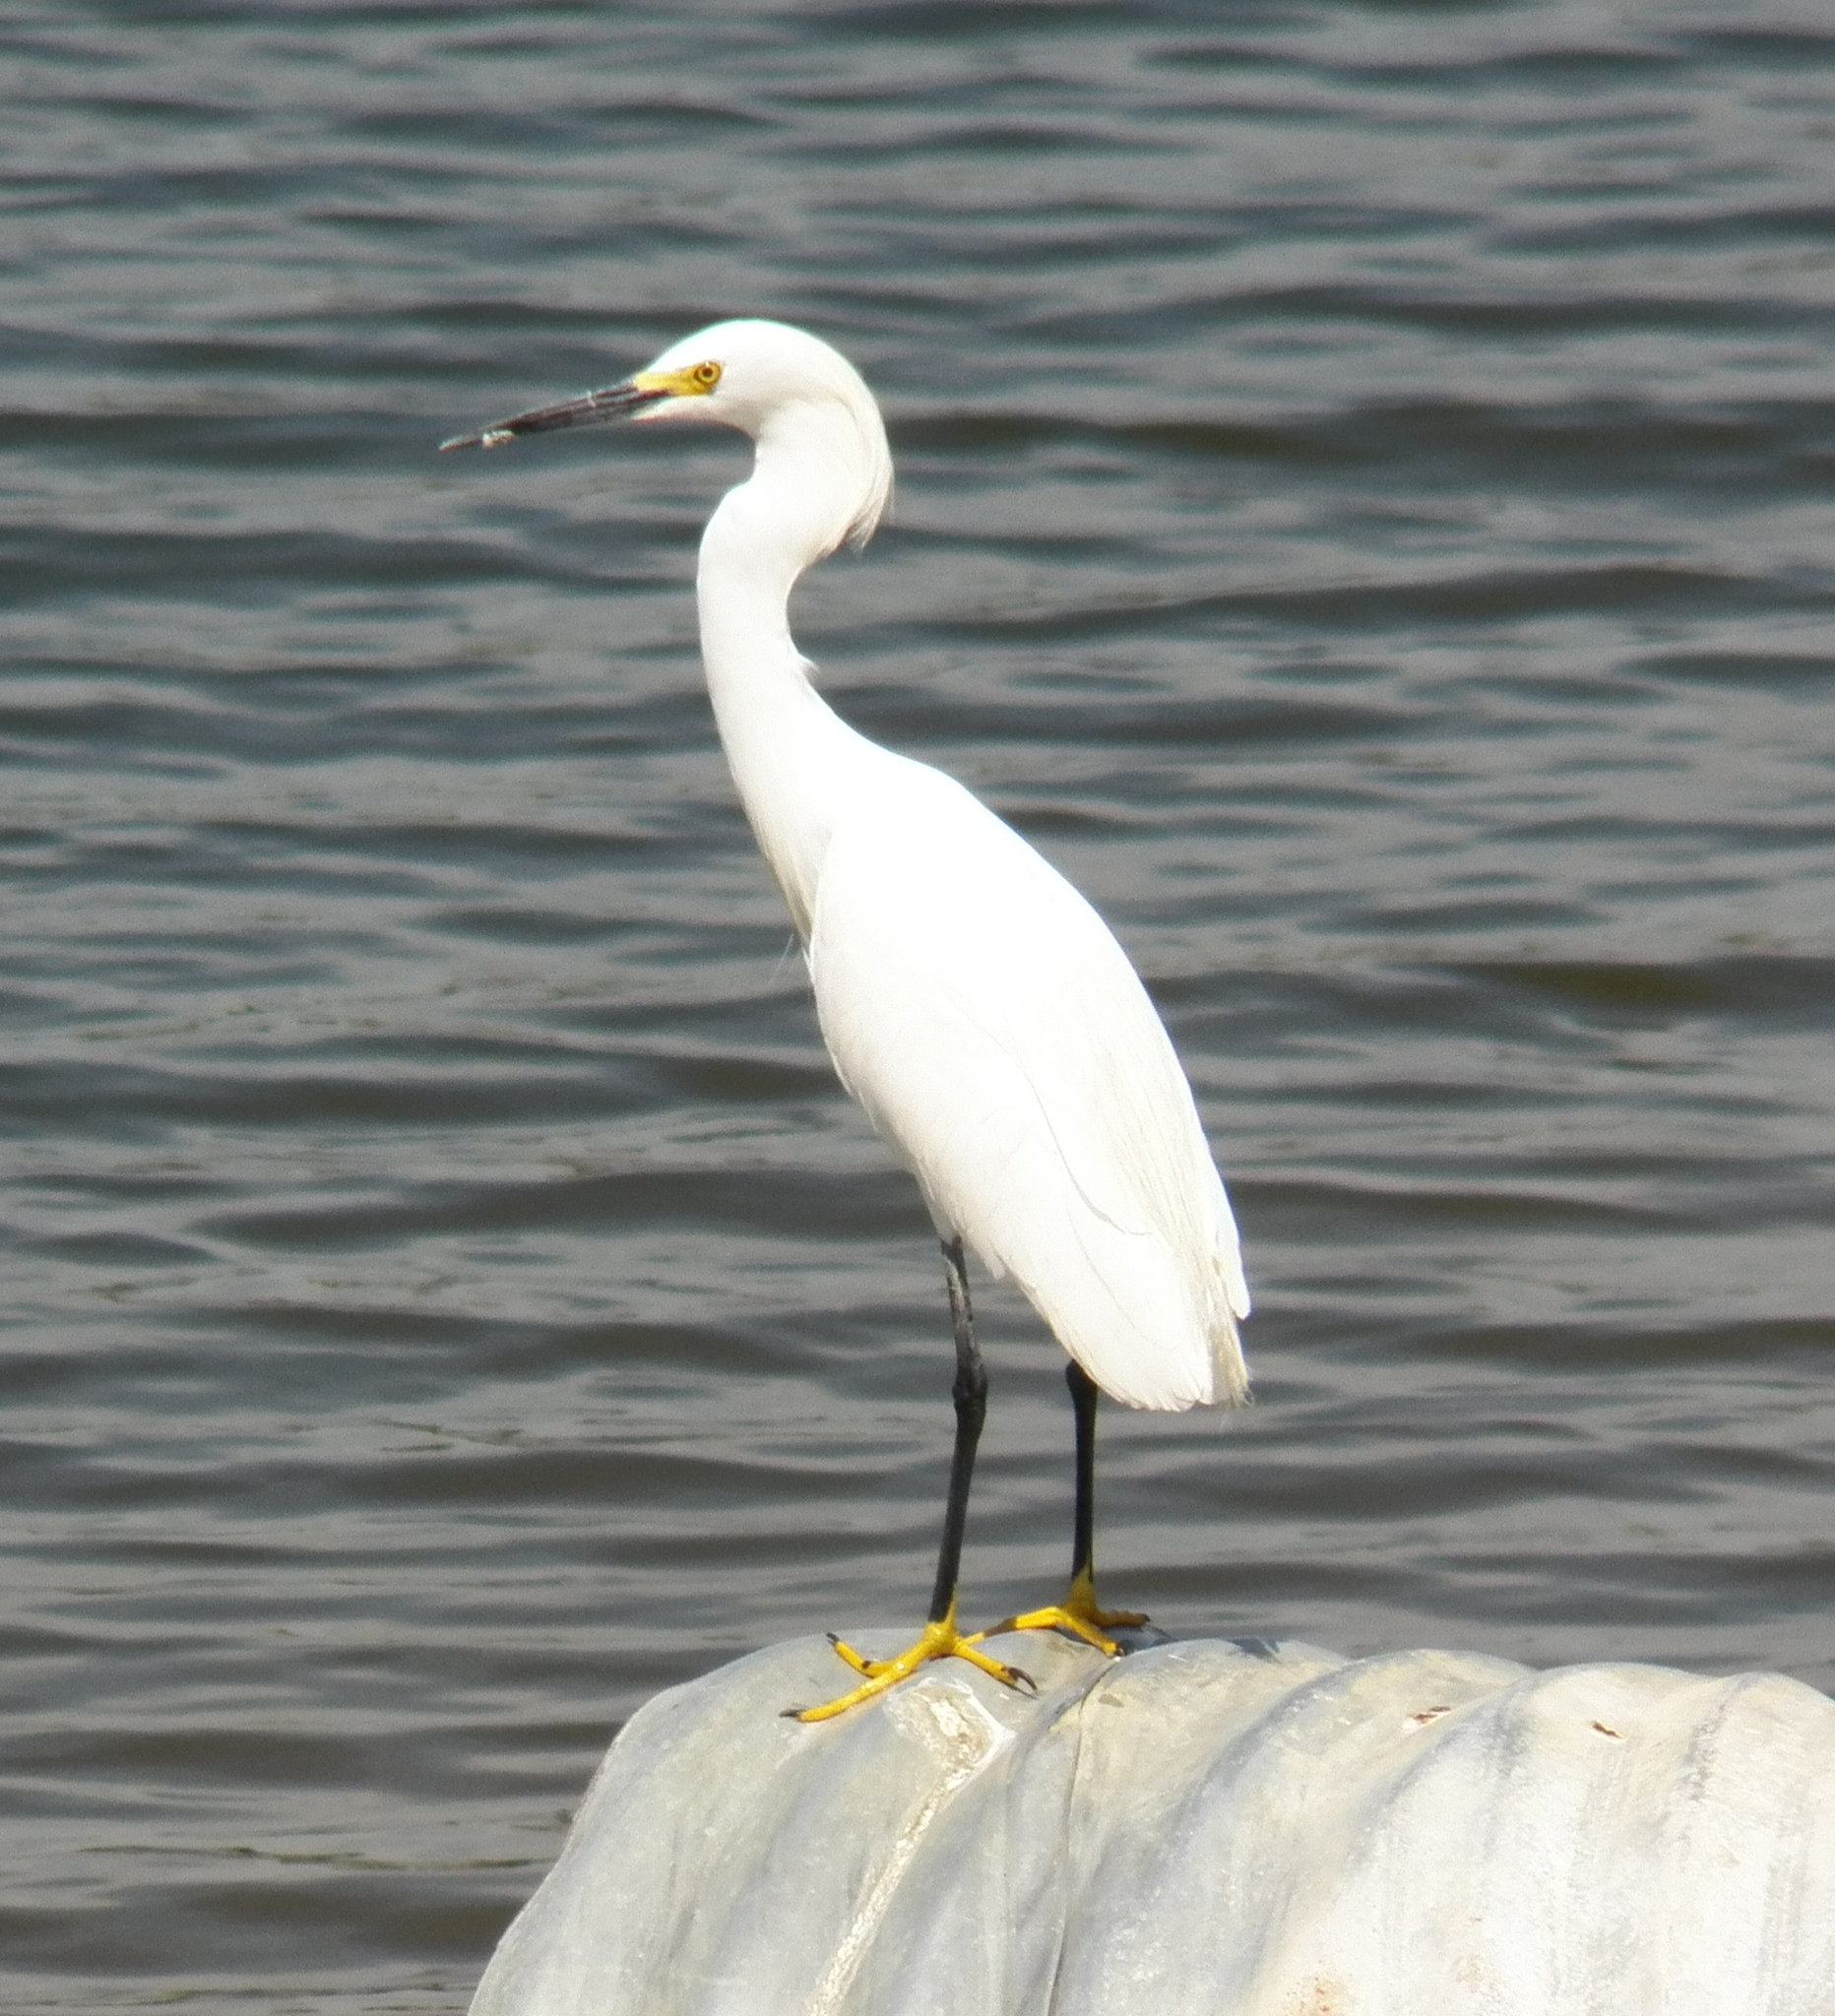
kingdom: Animalia
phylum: Chordata
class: Aves
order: Pelecaniformes
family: Ardeidae
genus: Egretta
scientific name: Egretta thula
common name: Snowy egret
